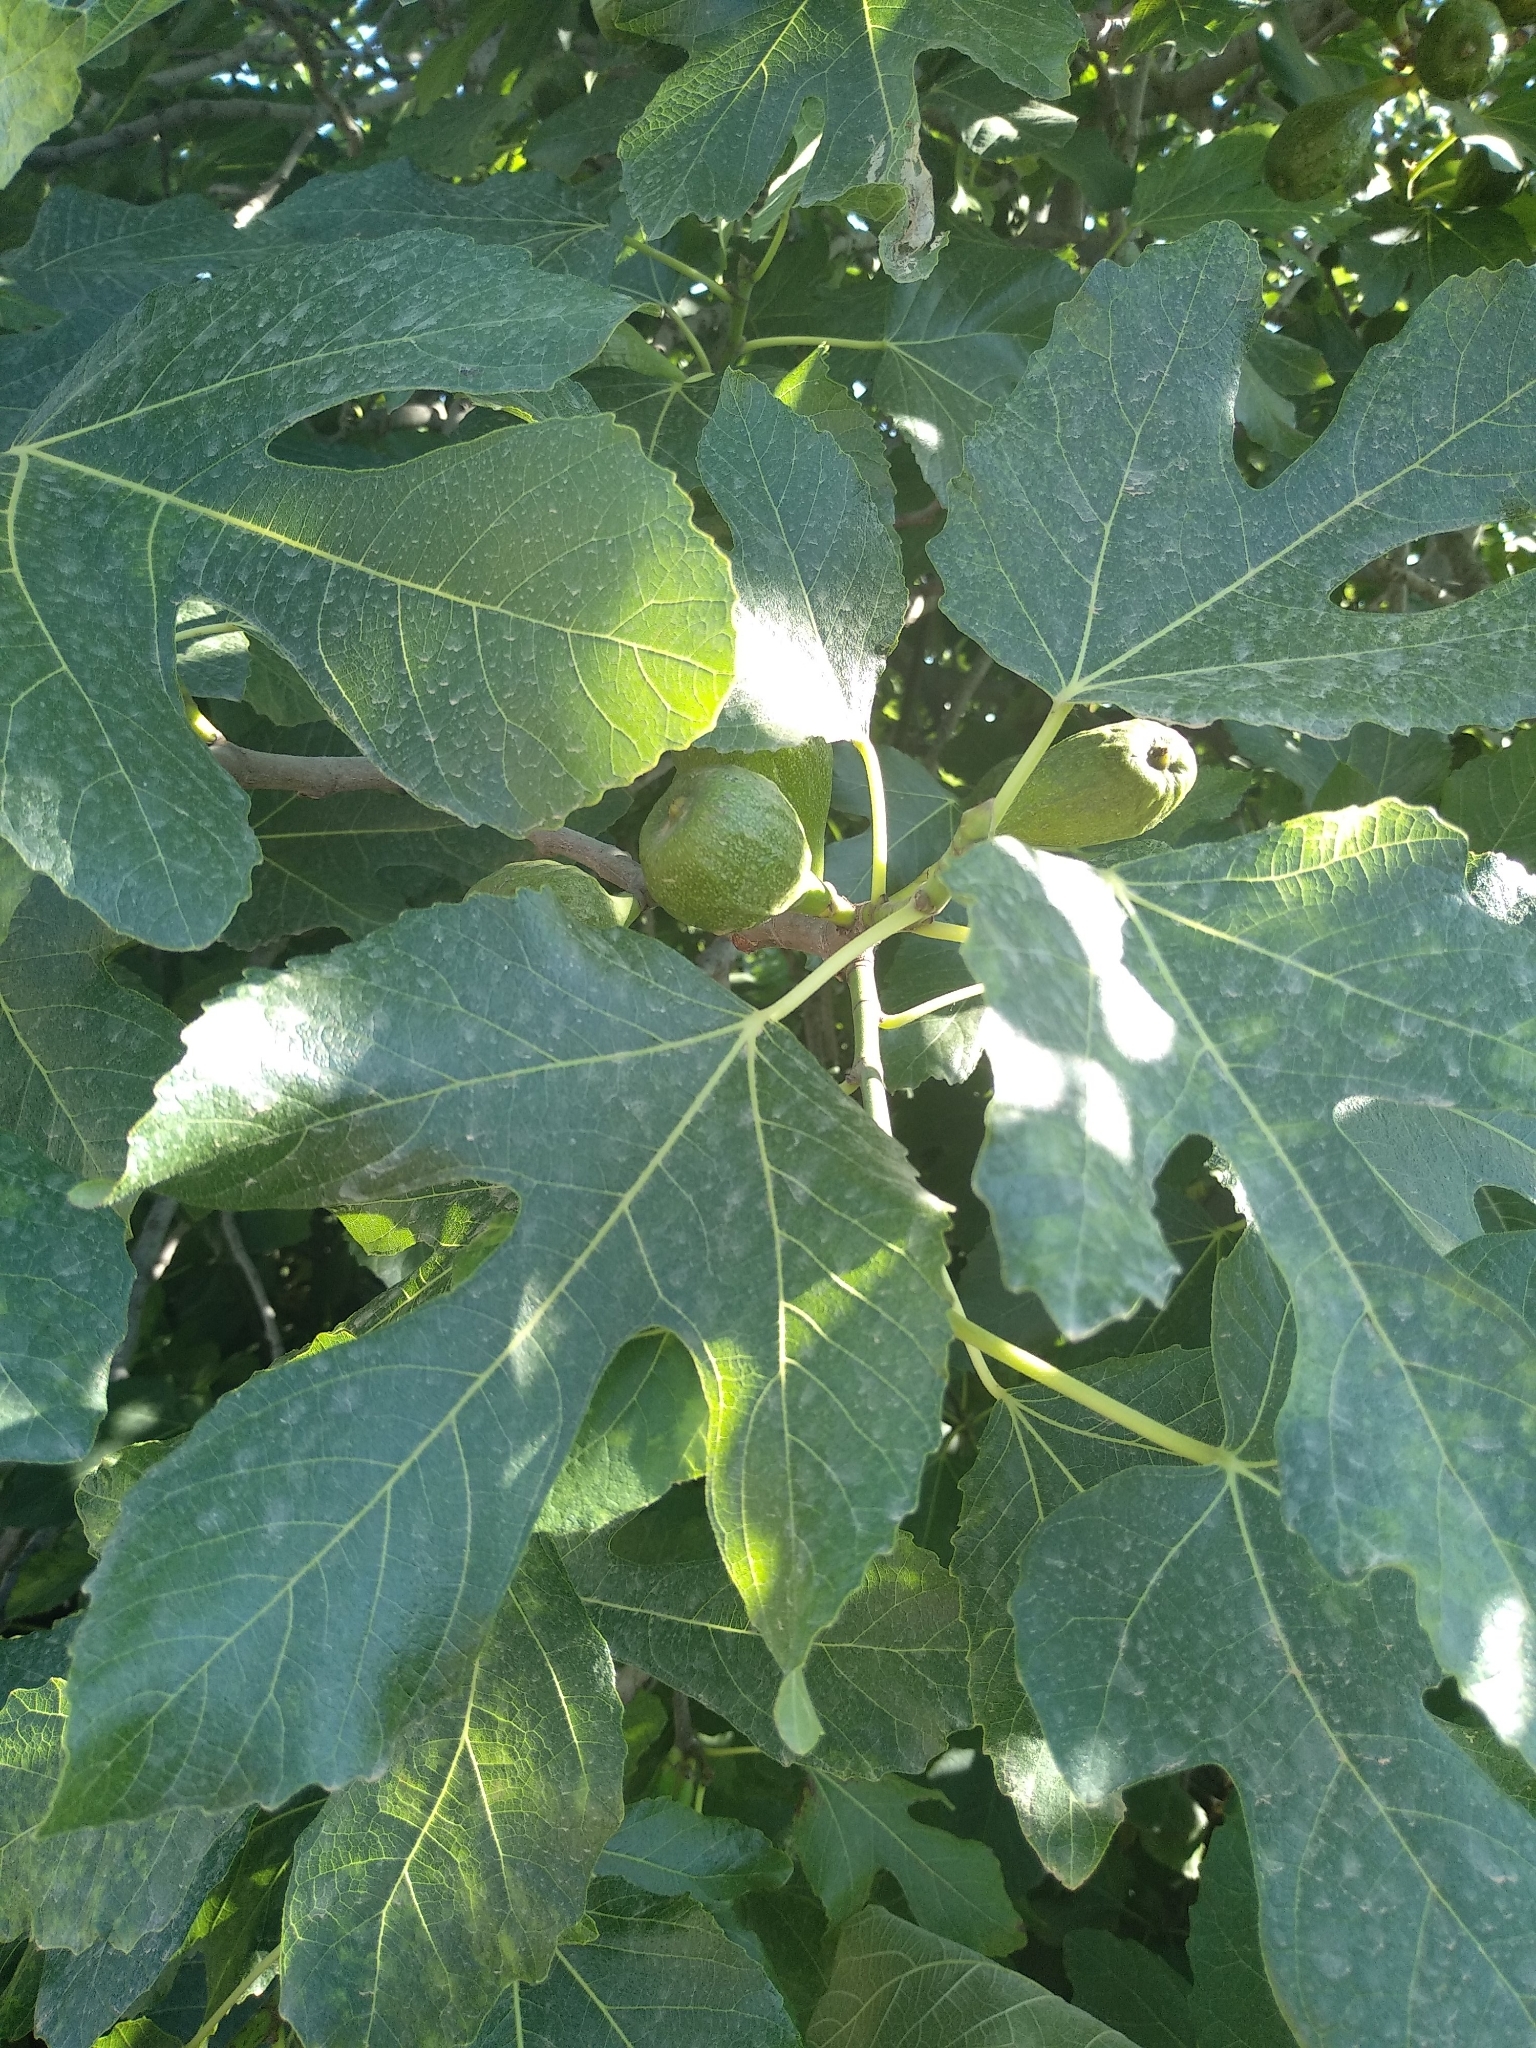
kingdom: Plantae
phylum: Tracheophyta
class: Magnoliopsida
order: Rosales
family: Moraceae
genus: Ficus
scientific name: Ficus carica
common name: Fig
